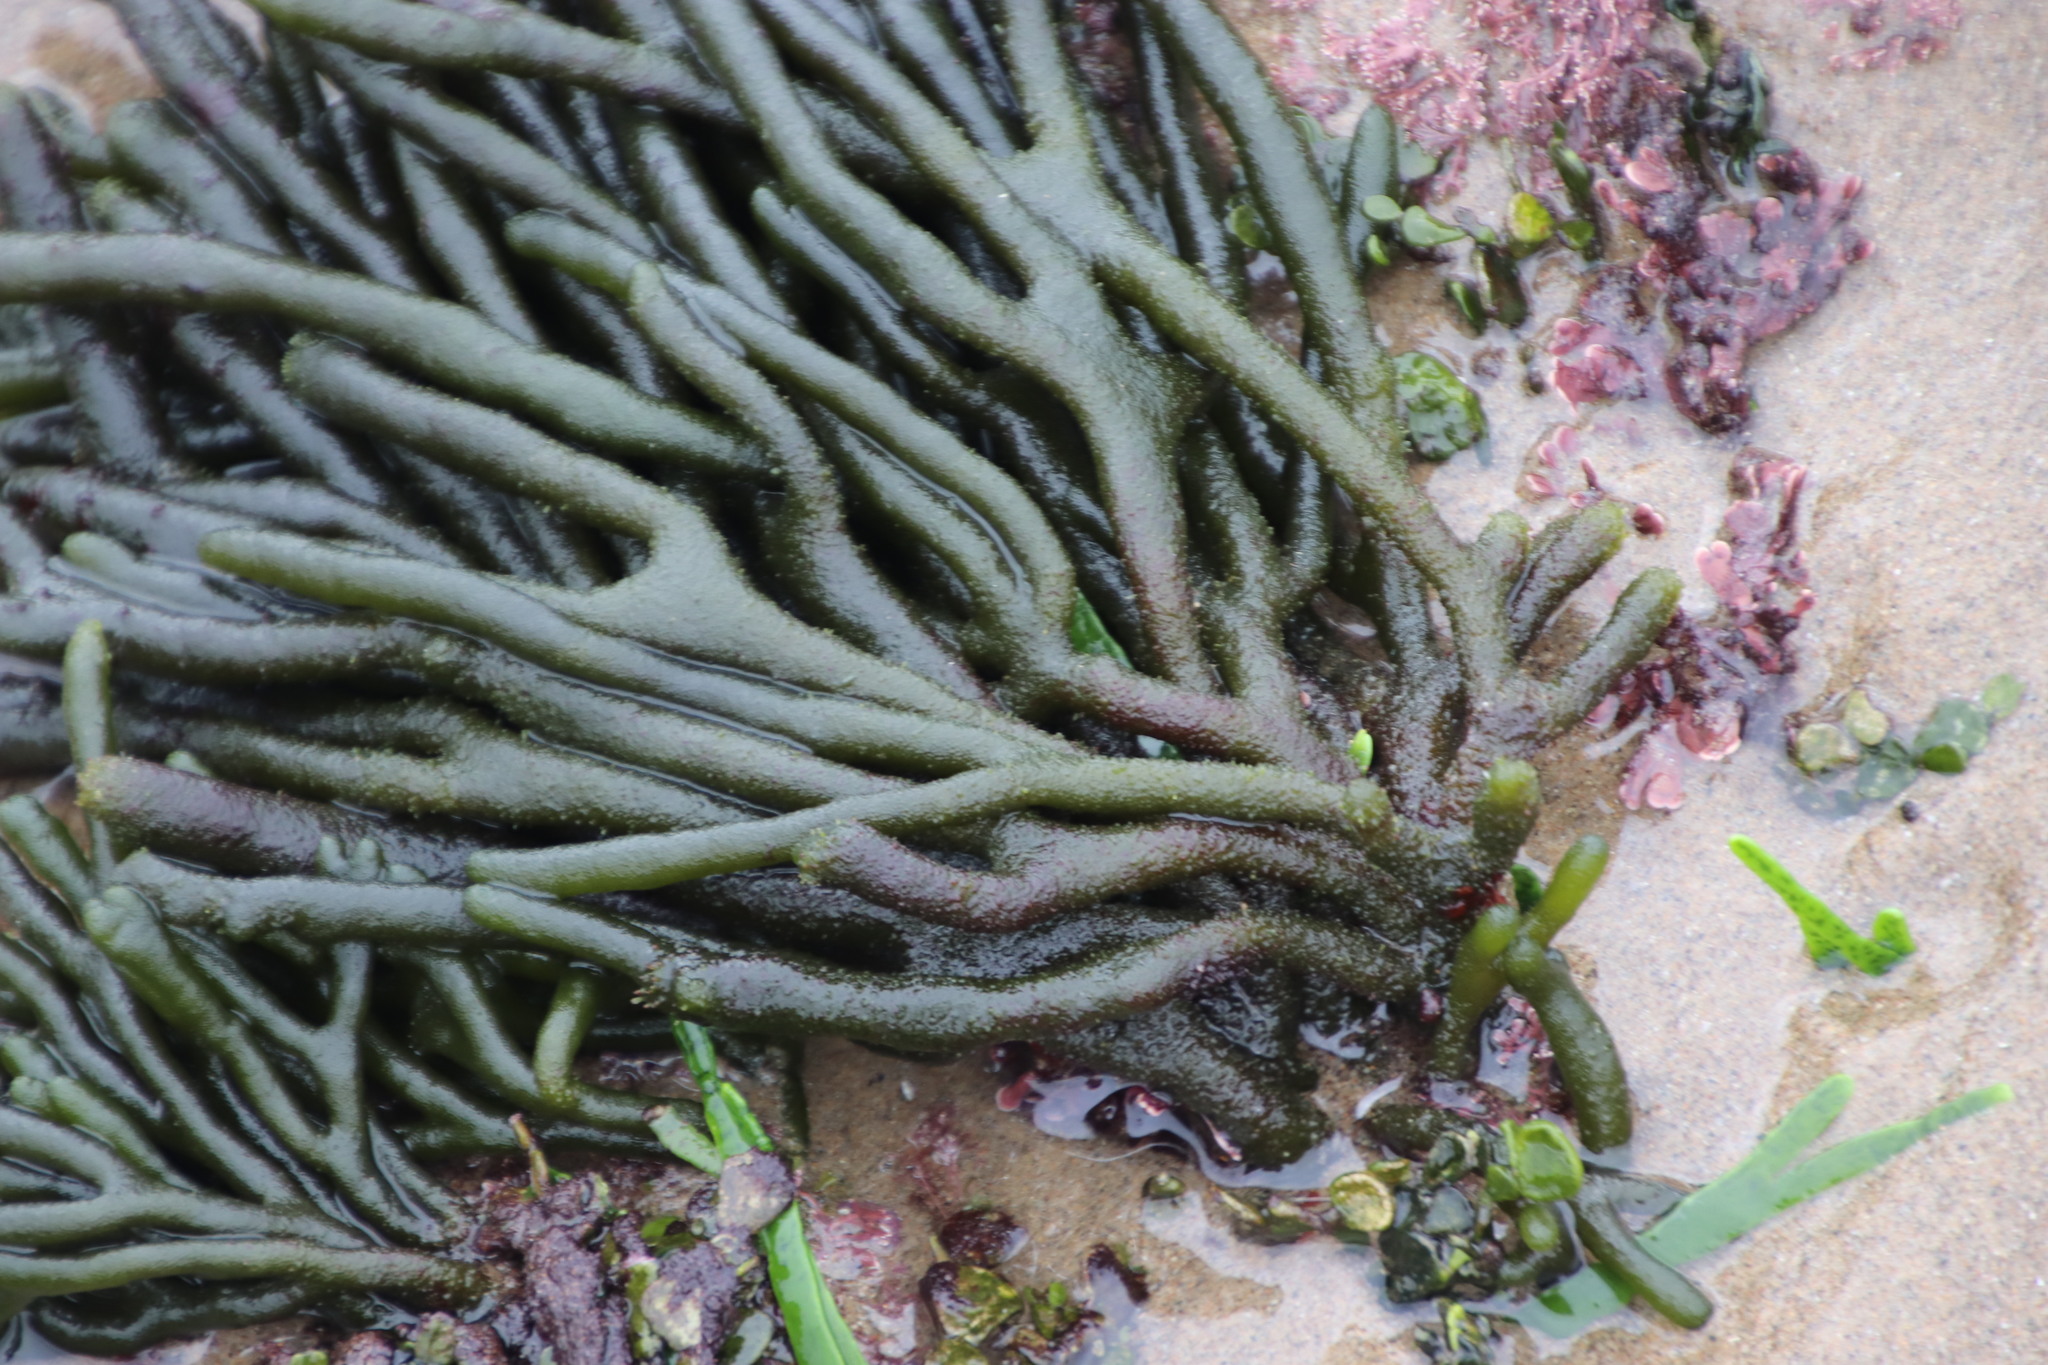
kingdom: Plantae
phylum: Chlorophyta
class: Ulvophyceae
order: Bryopsidales
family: Codiaceae
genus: Codium
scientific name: Codium
